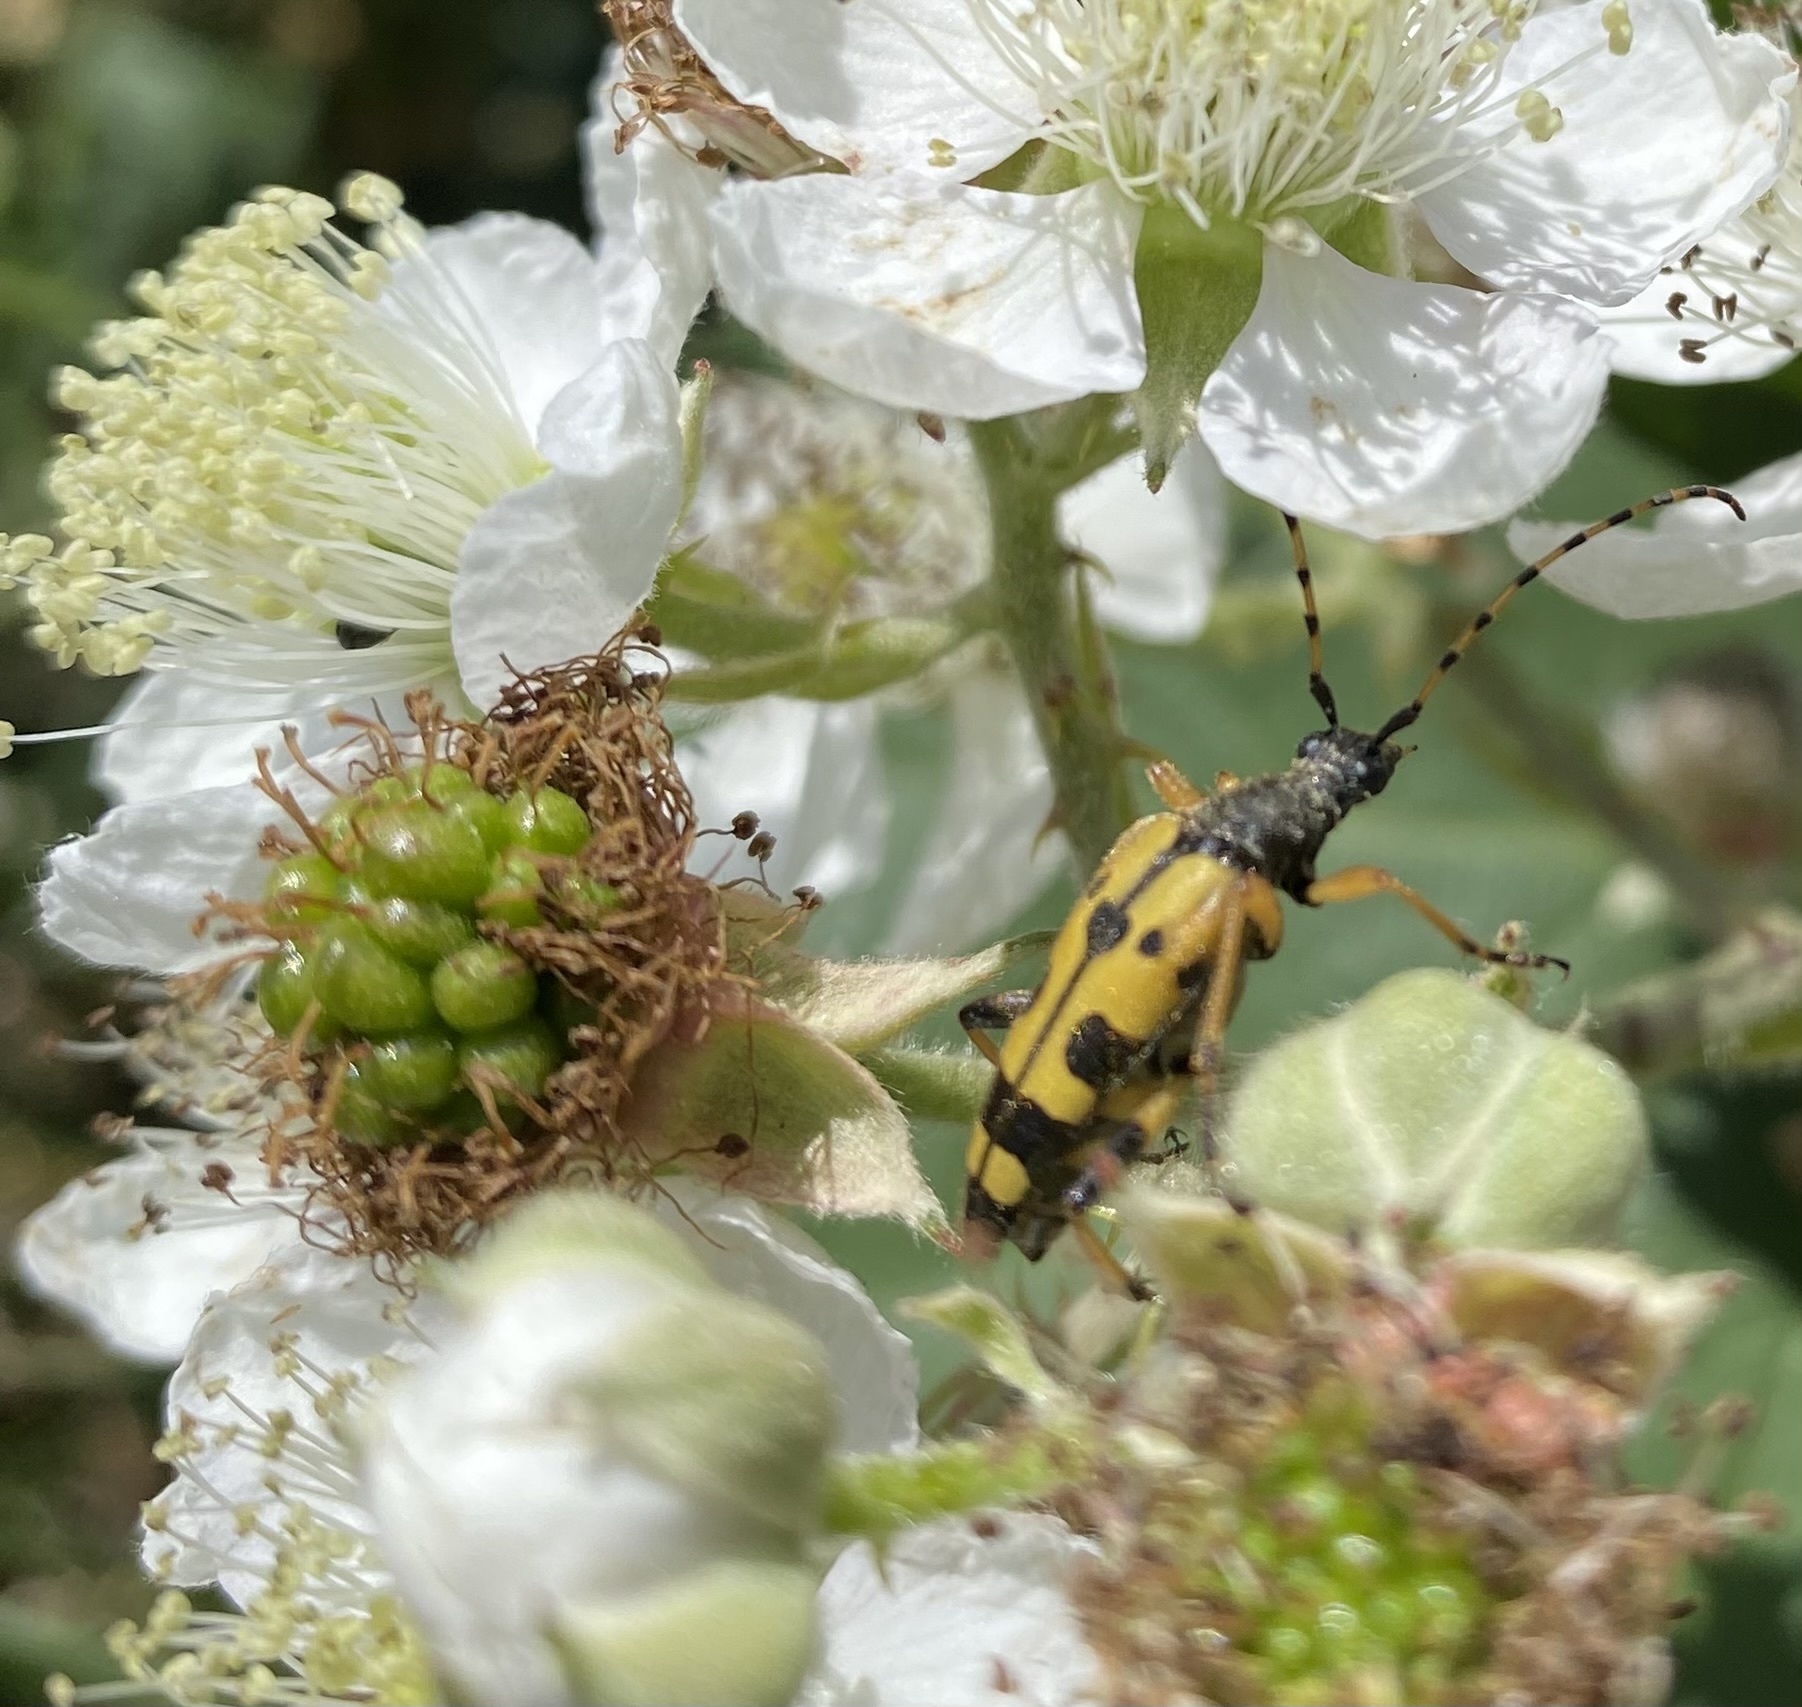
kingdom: Animalia
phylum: Arthropoda
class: Insecta
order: Coleoptera
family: Cerambycidae
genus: Rutpela
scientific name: Rutpela maculata
